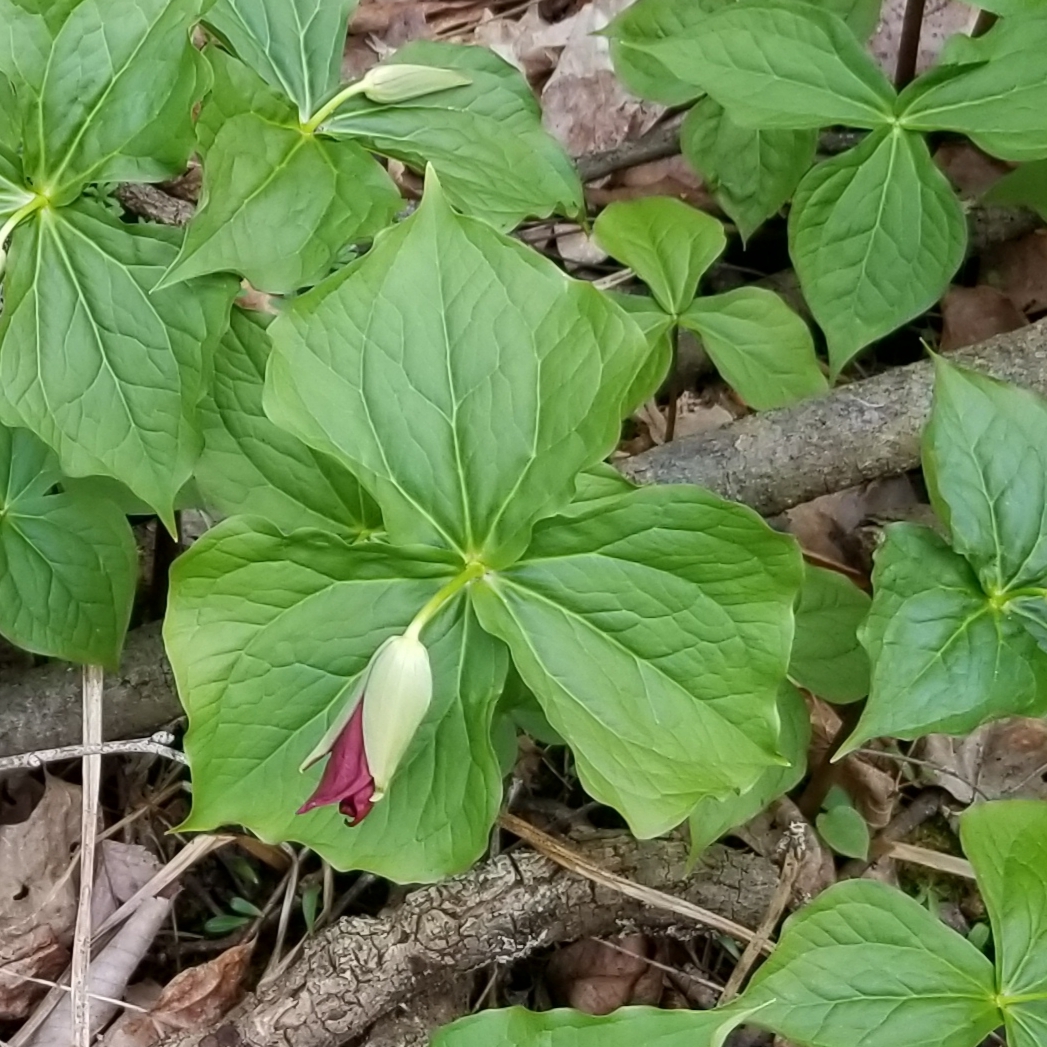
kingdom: Plantae
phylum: Tracheophyta
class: Liliopsida
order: Liliales
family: Melanthiaceae
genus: Trillium
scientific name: Trillium erectum
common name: Purple trillium
